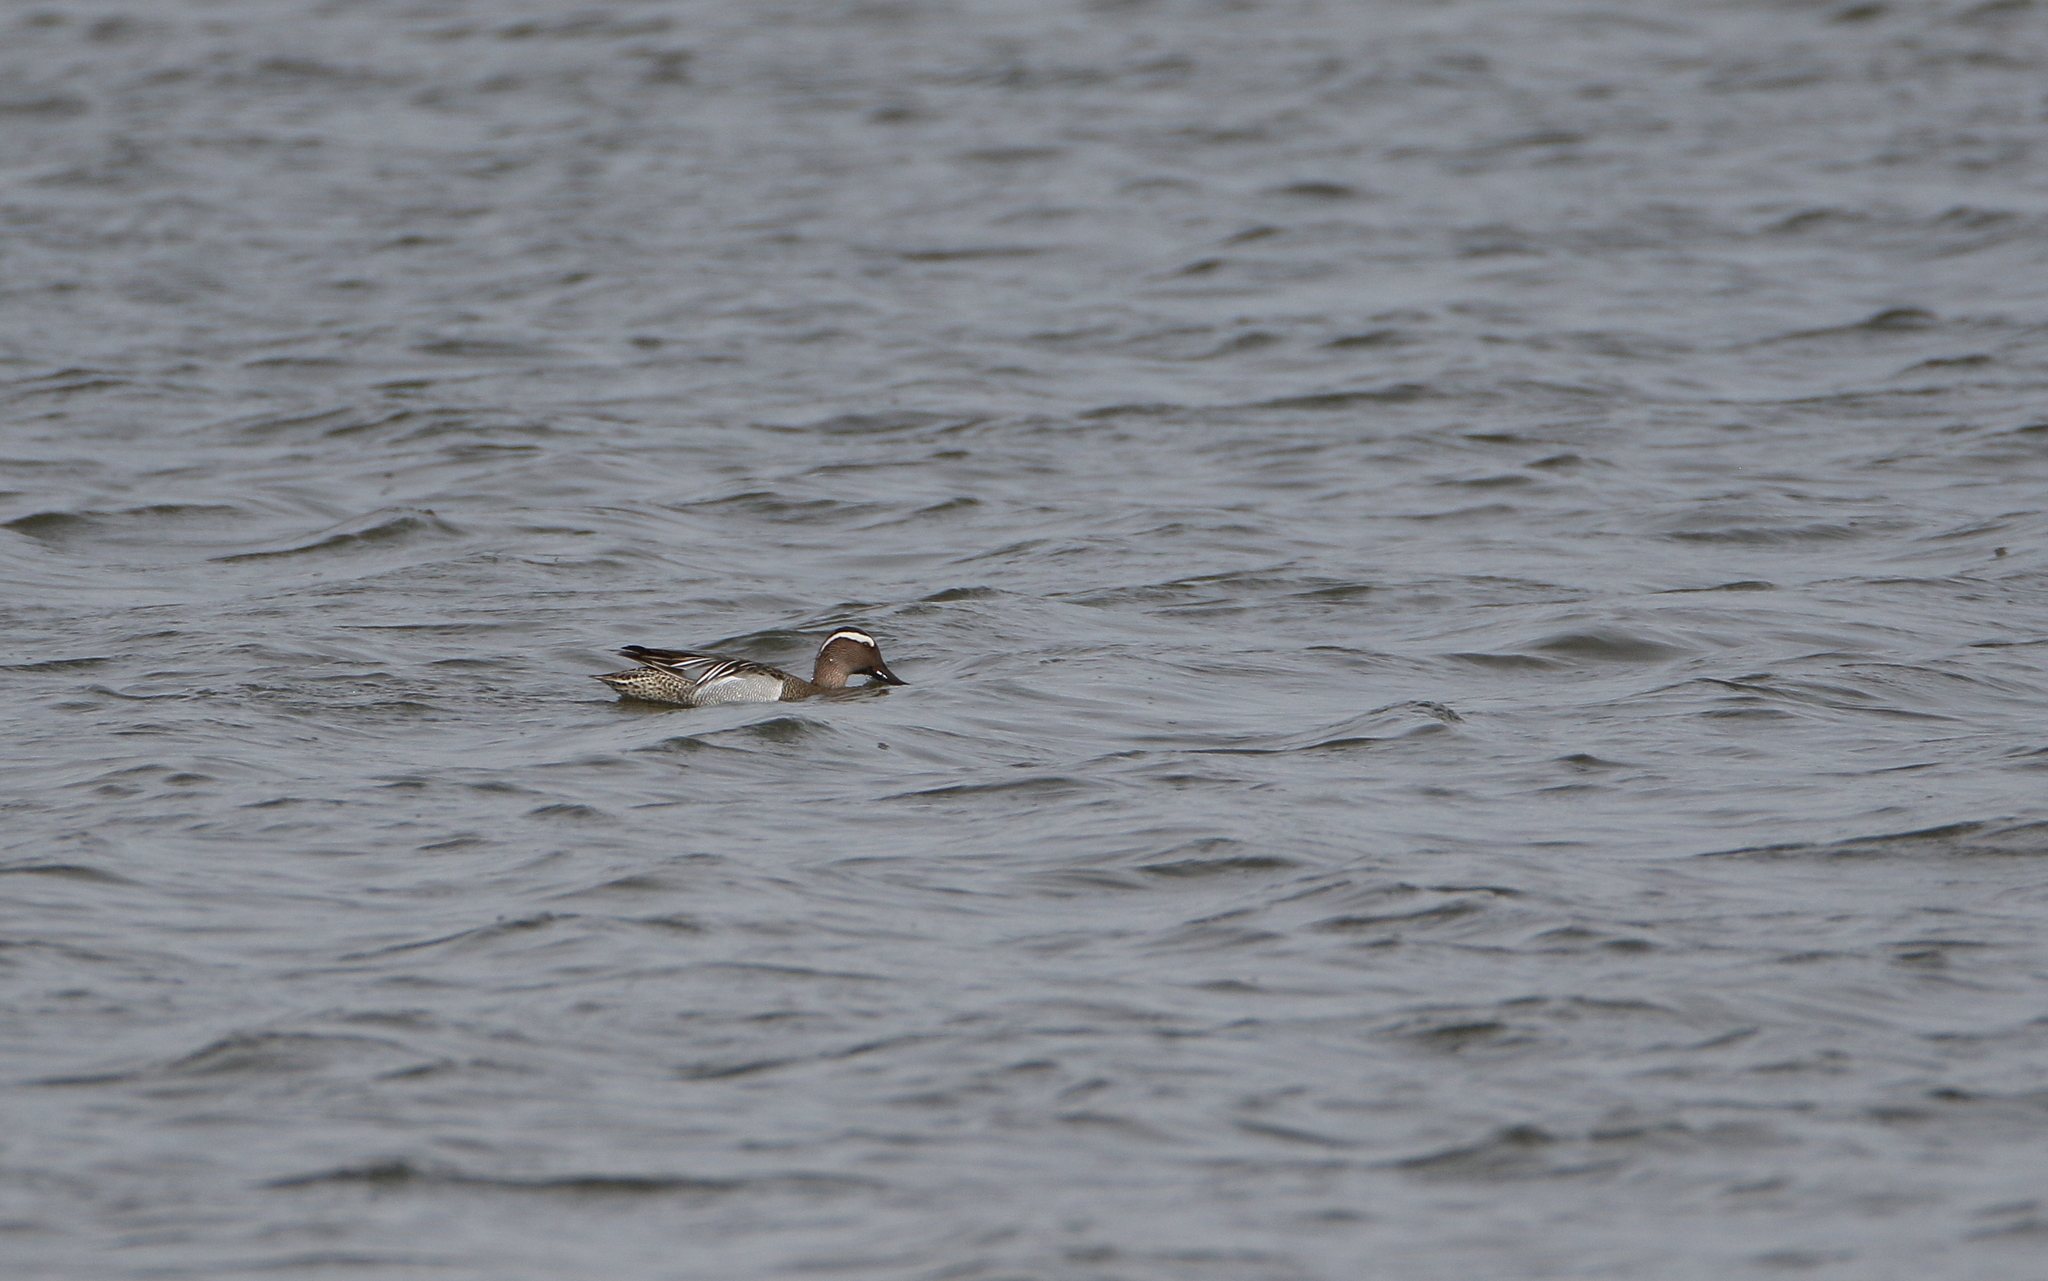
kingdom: Animalia
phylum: Chordata
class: Aves
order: Anseriformes
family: Anatidae
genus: Spatula
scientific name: Spatula querquedula
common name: Garganey
